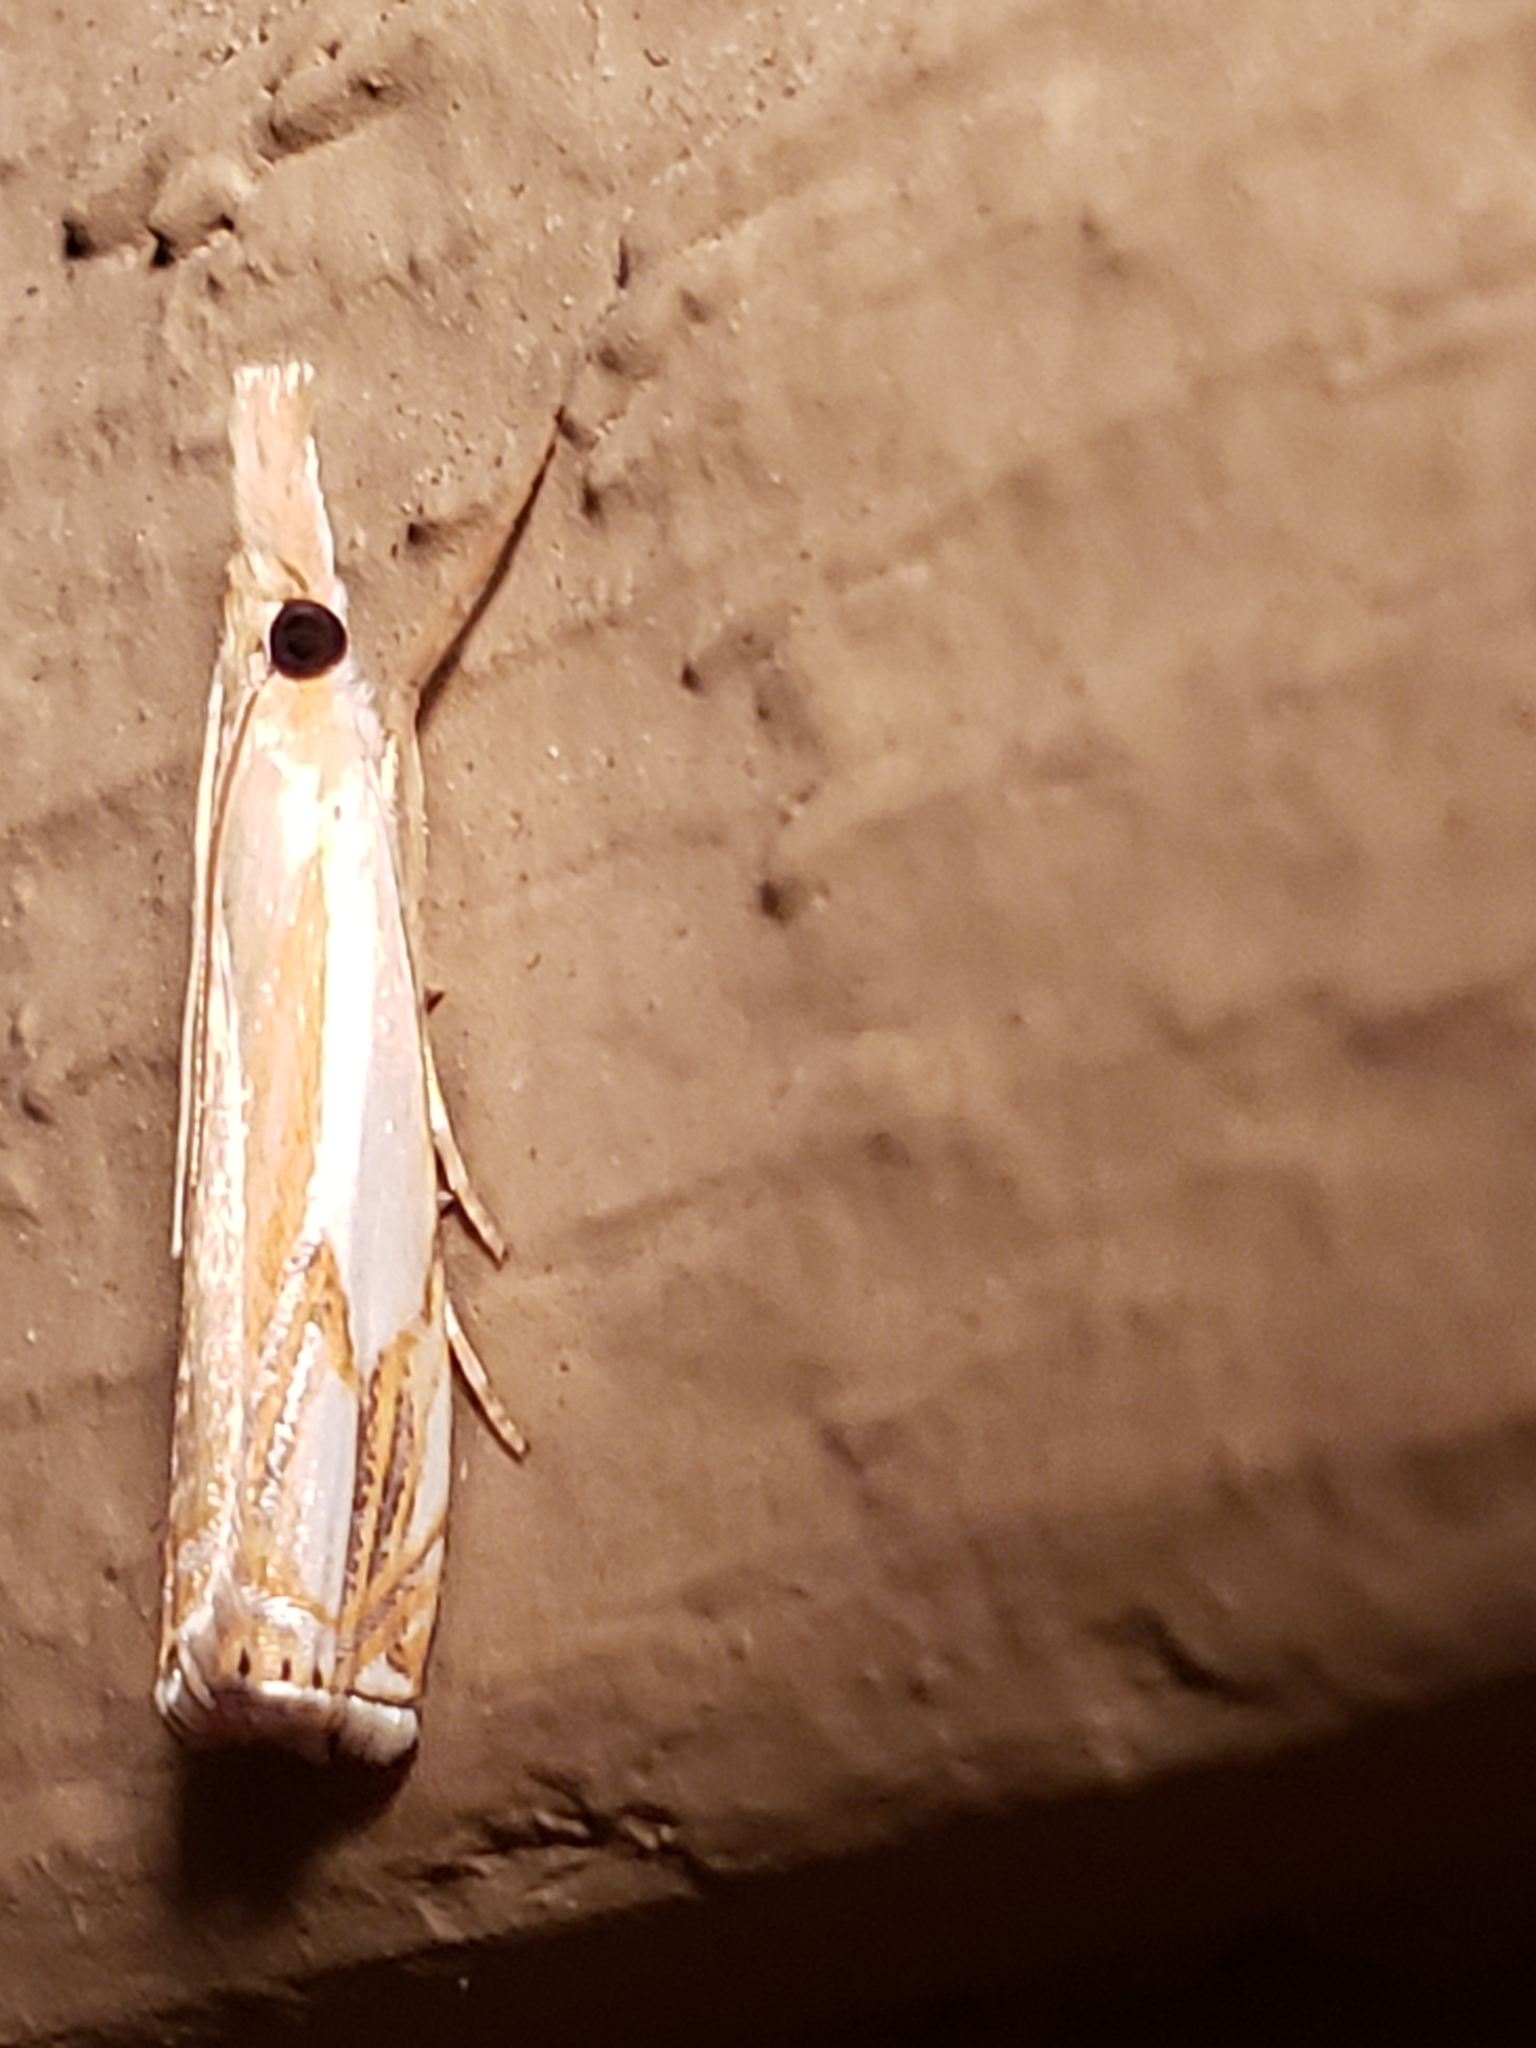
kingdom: Animalia
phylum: Arthropoda
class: Insecta
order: Lepidoptera
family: Crambidae
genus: Crambus
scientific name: Crambus agitatellus
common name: Double-banded grass-veneer
